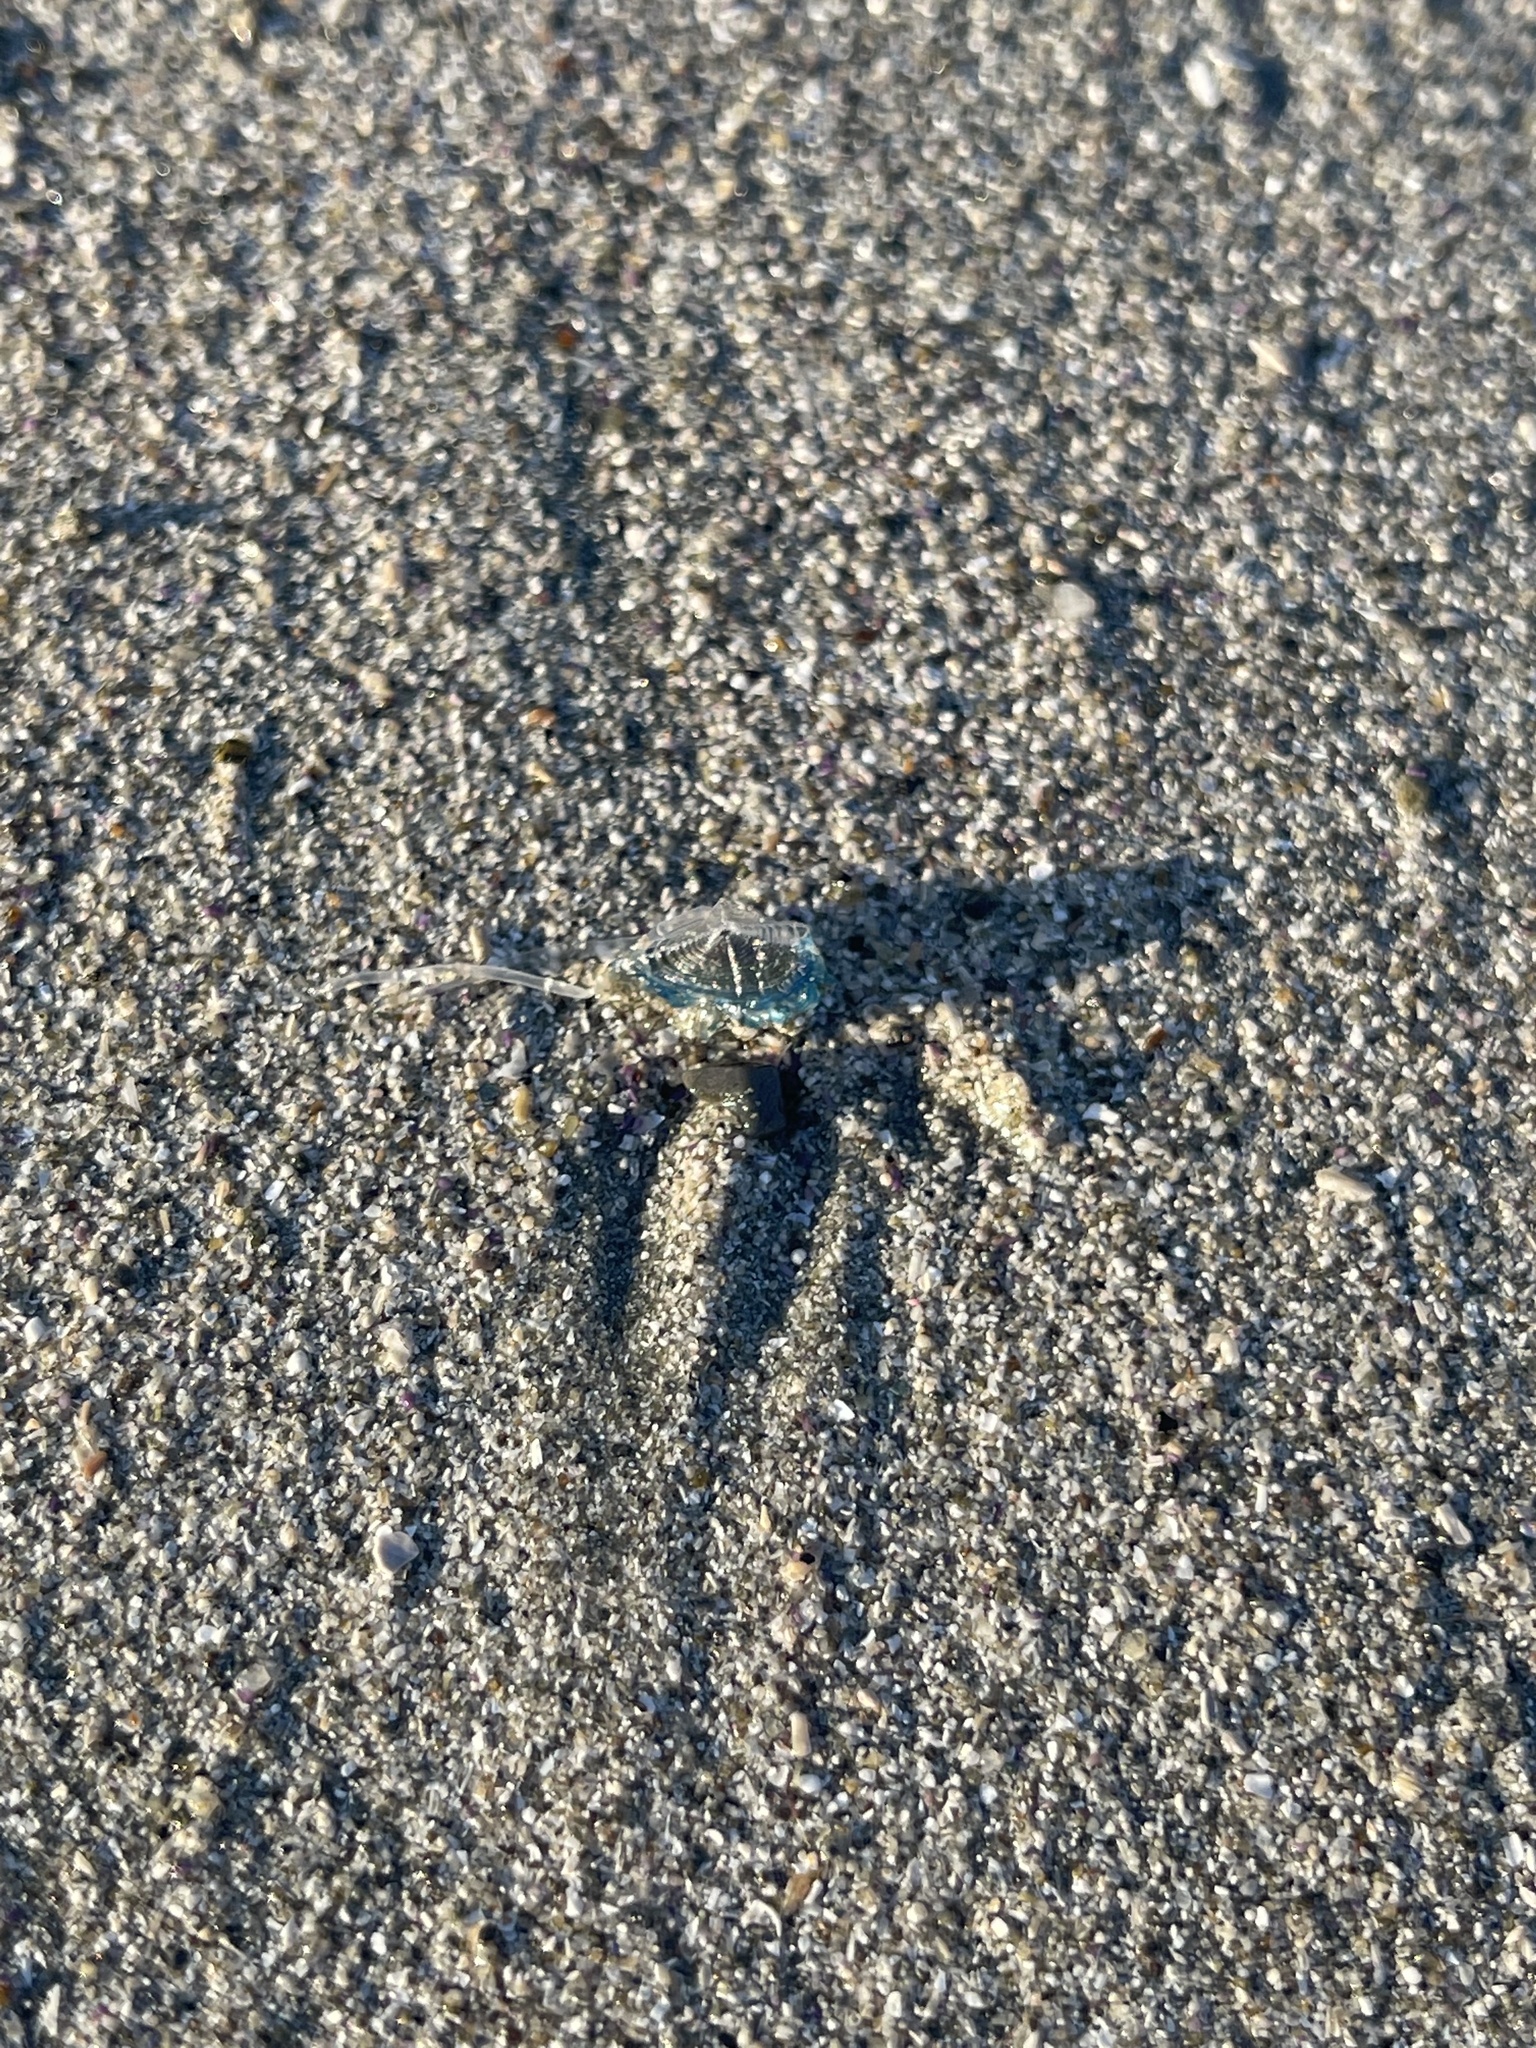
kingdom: Animalia
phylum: Cnidaria
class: Hydrozoa
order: Anthoathecata
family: Porpitidae
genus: Velella
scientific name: Velella velella
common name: By-the-wind-sailor
